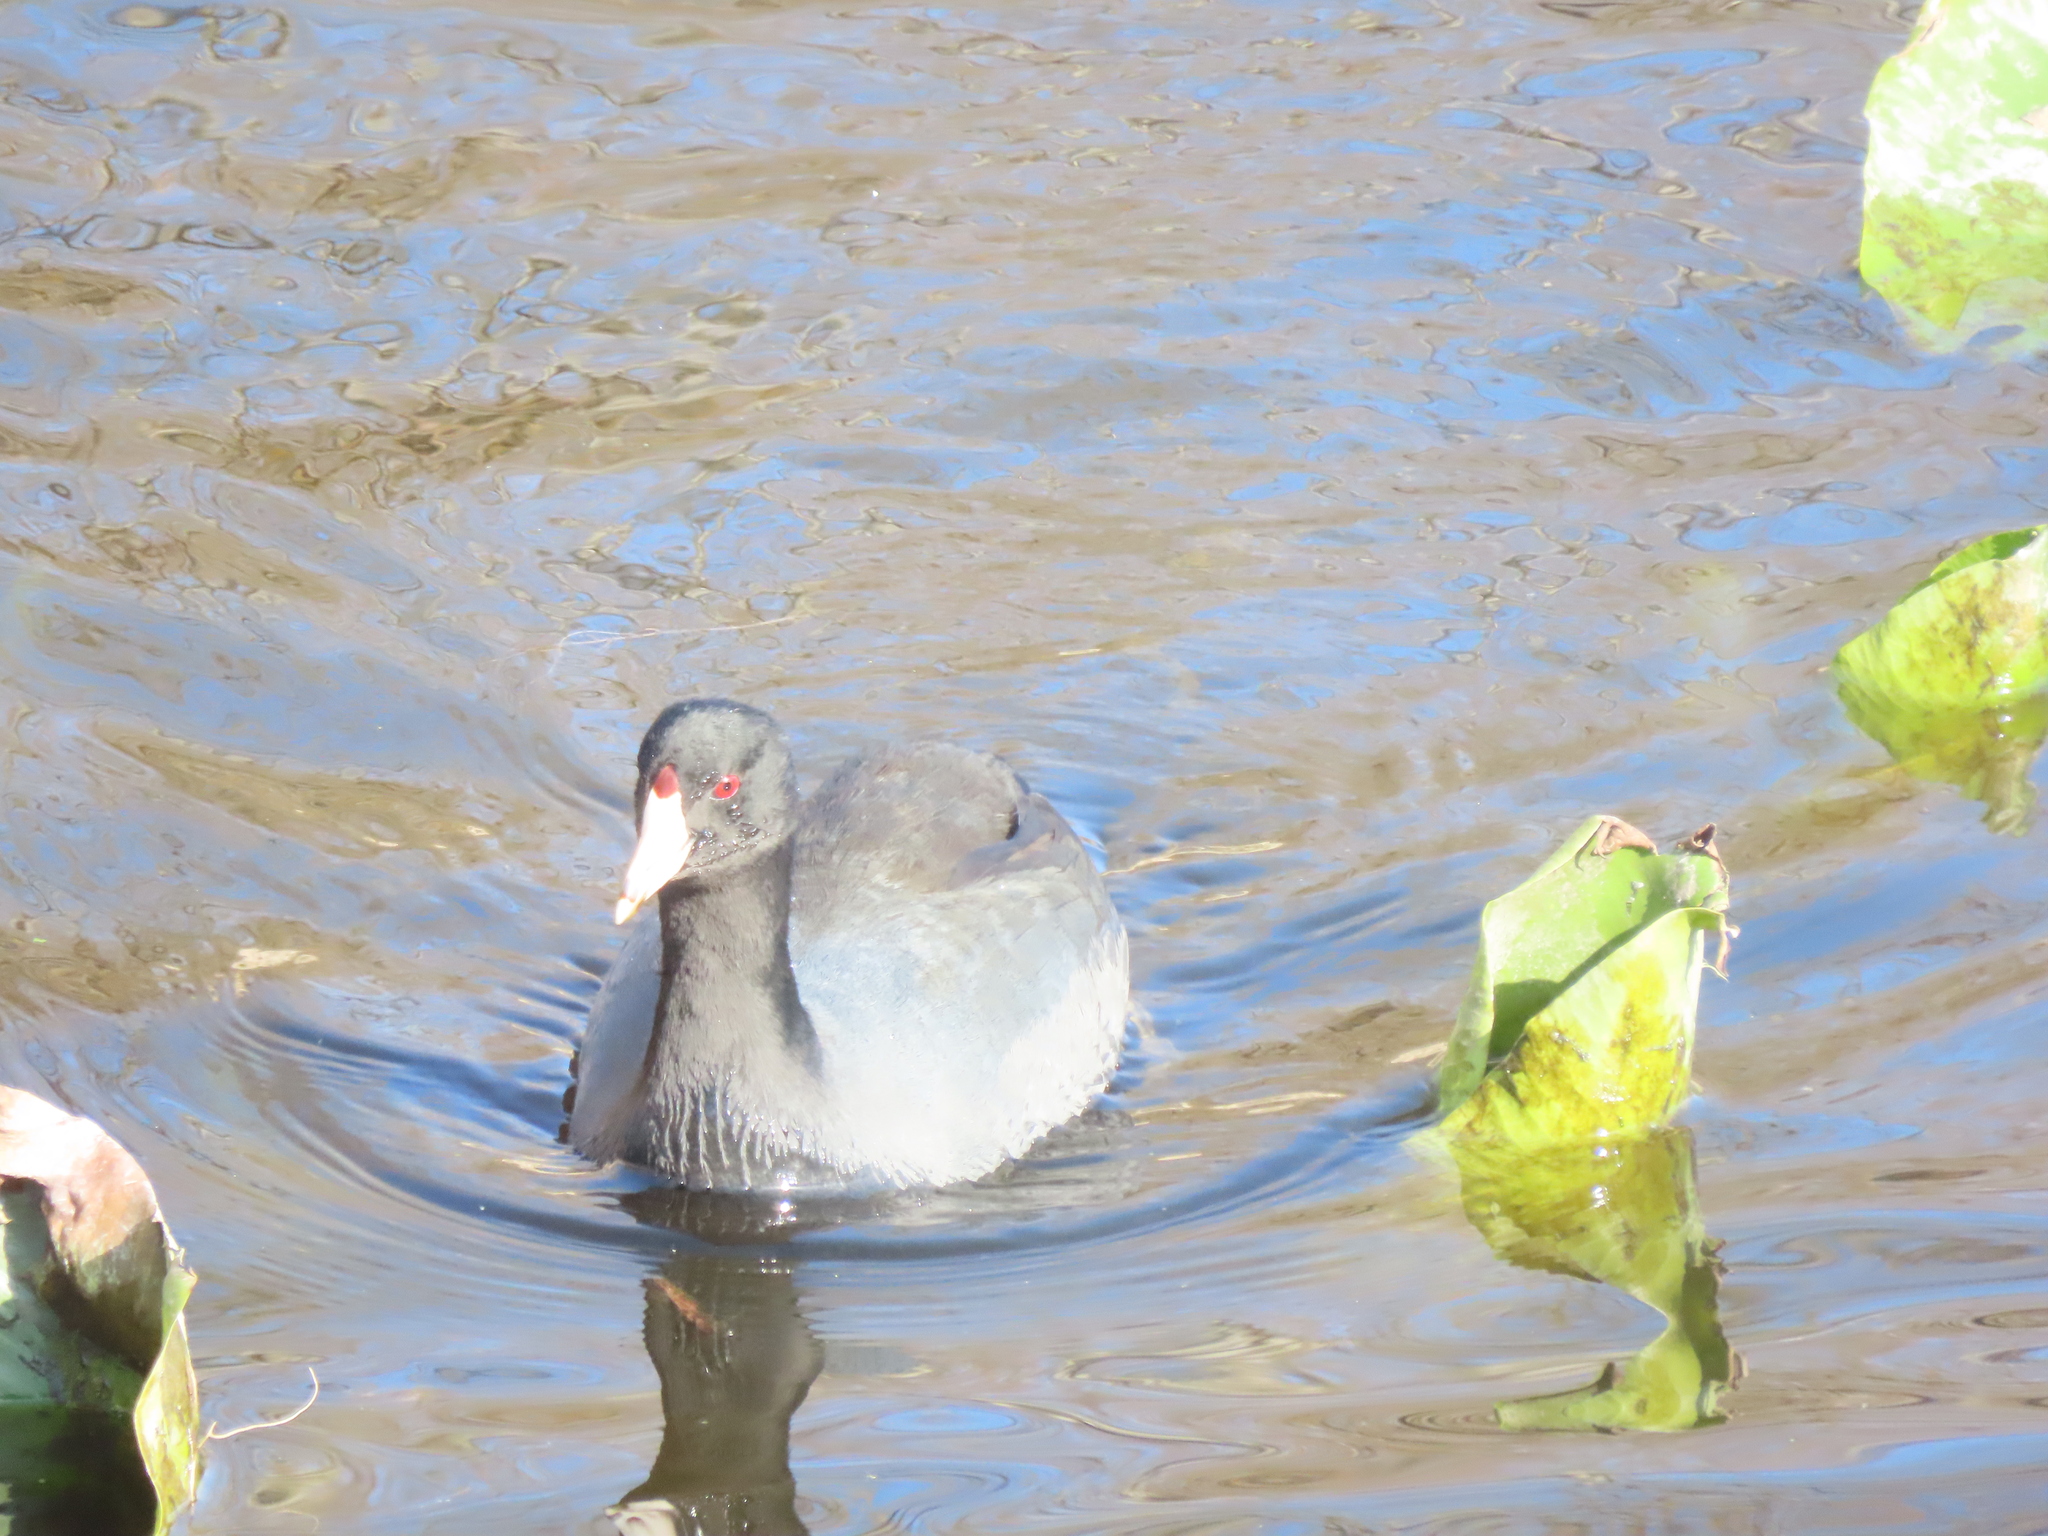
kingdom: Animalia
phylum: Chordata
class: Aves
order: Gruiformes
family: Rallidae
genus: Fulica
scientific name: Fulica americana
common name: American coot
